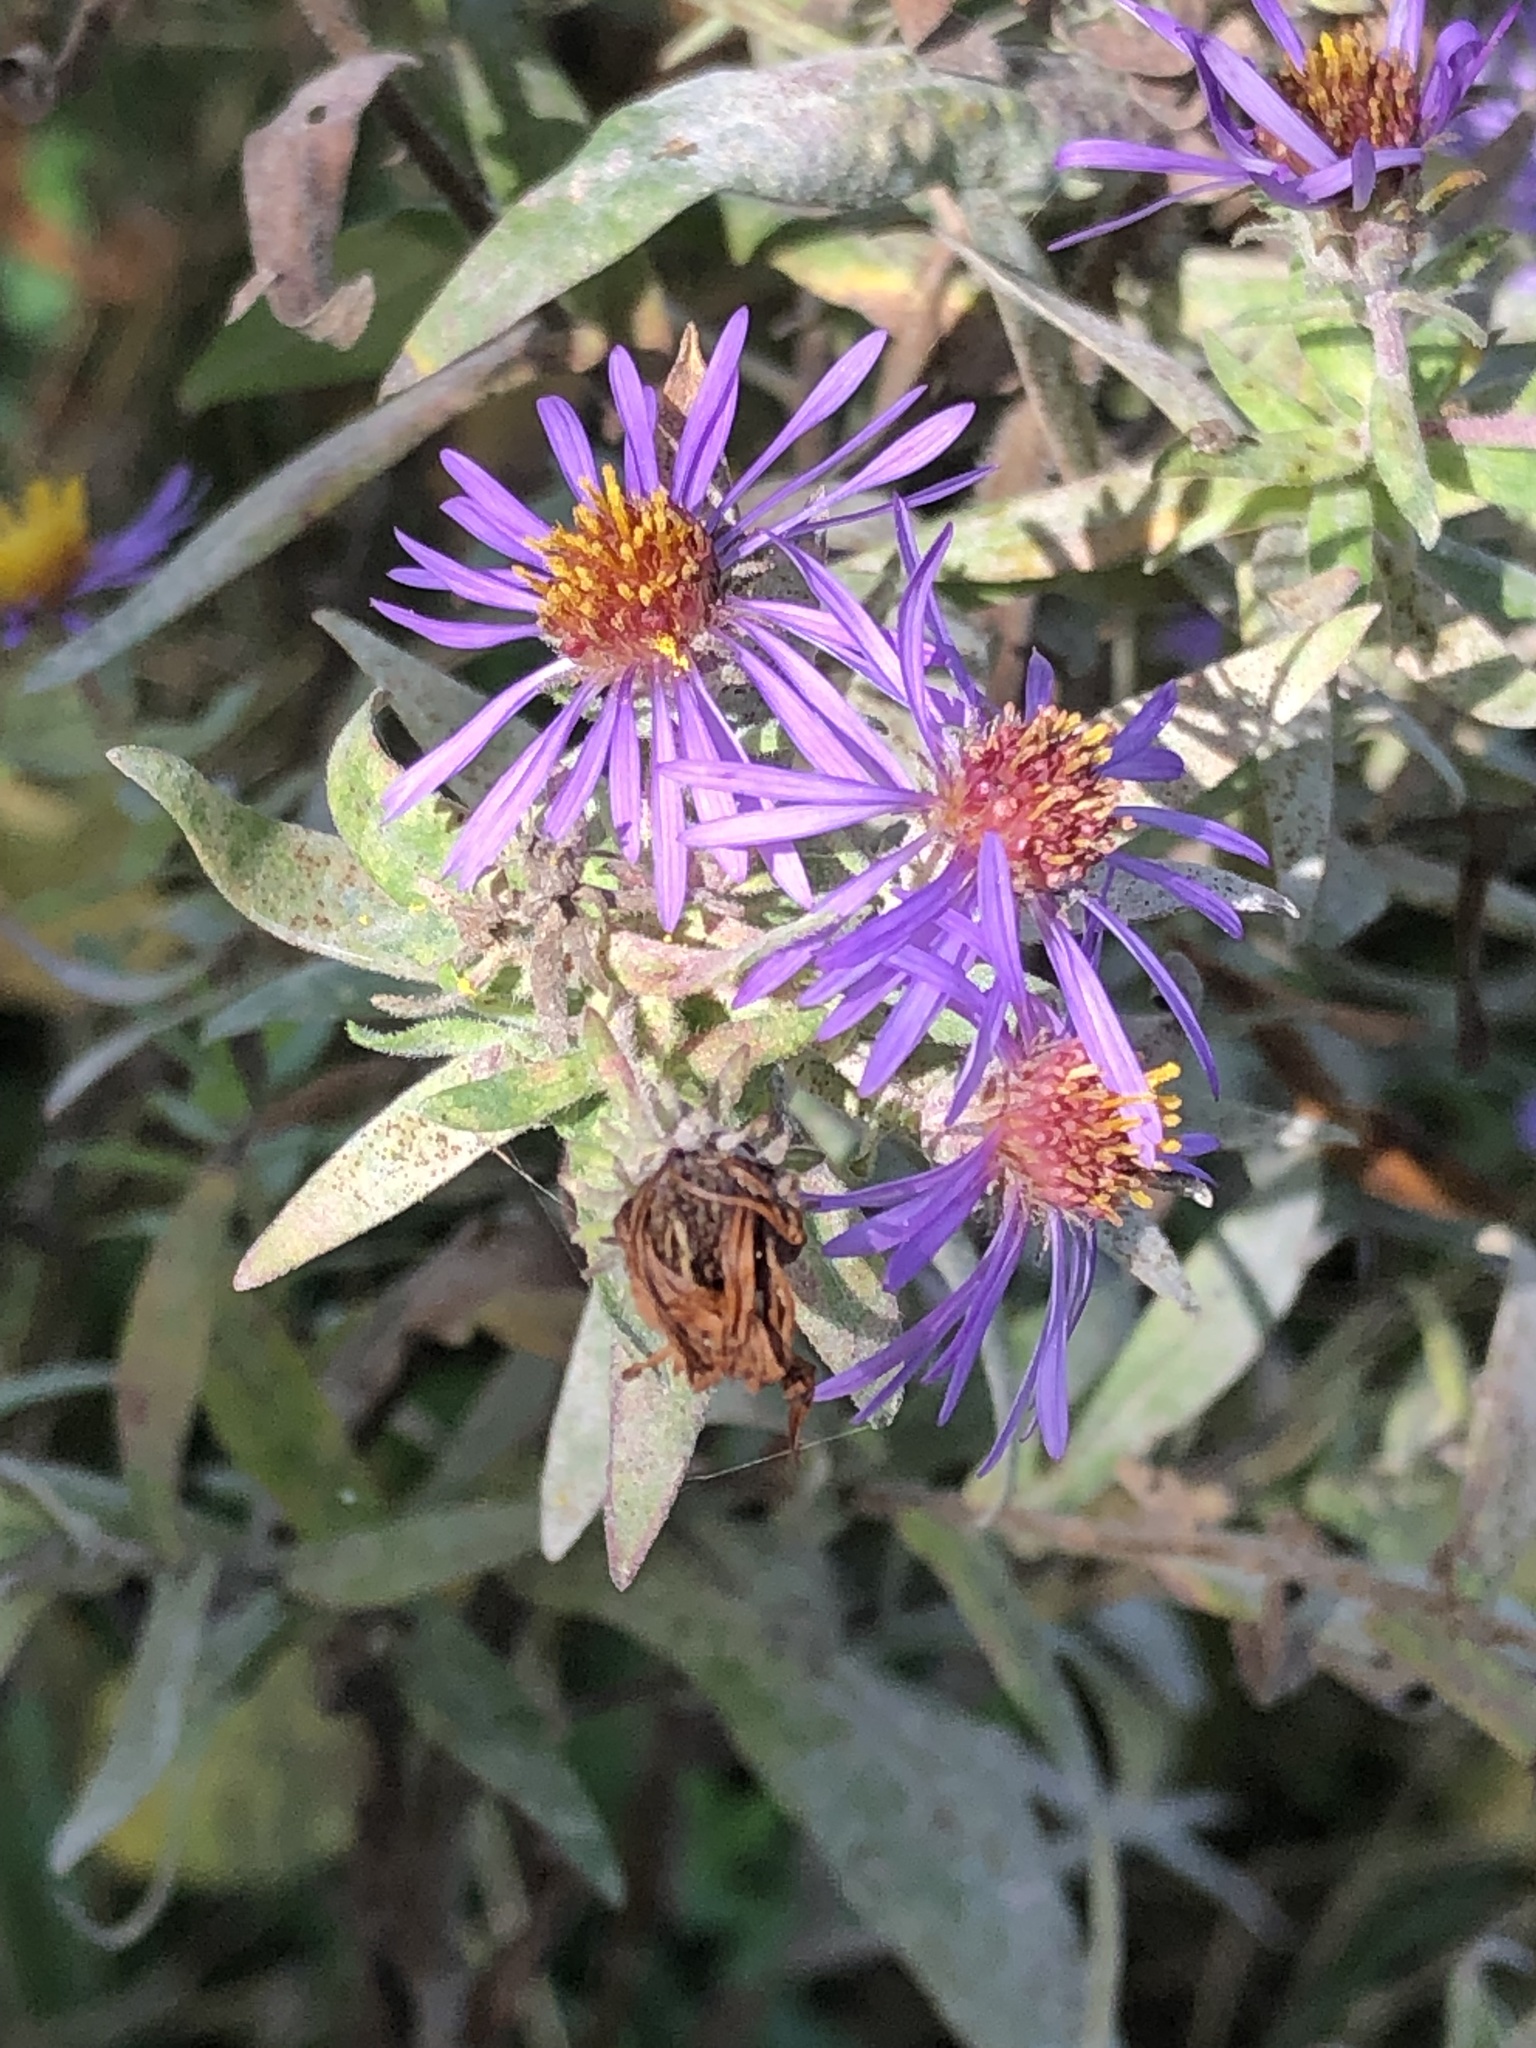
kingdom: Plantae
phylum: Tracheophyta
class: Magnoliopsida
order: Asterales
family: Asteraceae
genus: Symphyotrichum
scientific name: Symphyotrichum novae-angliae
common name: Michaelmas daisy
